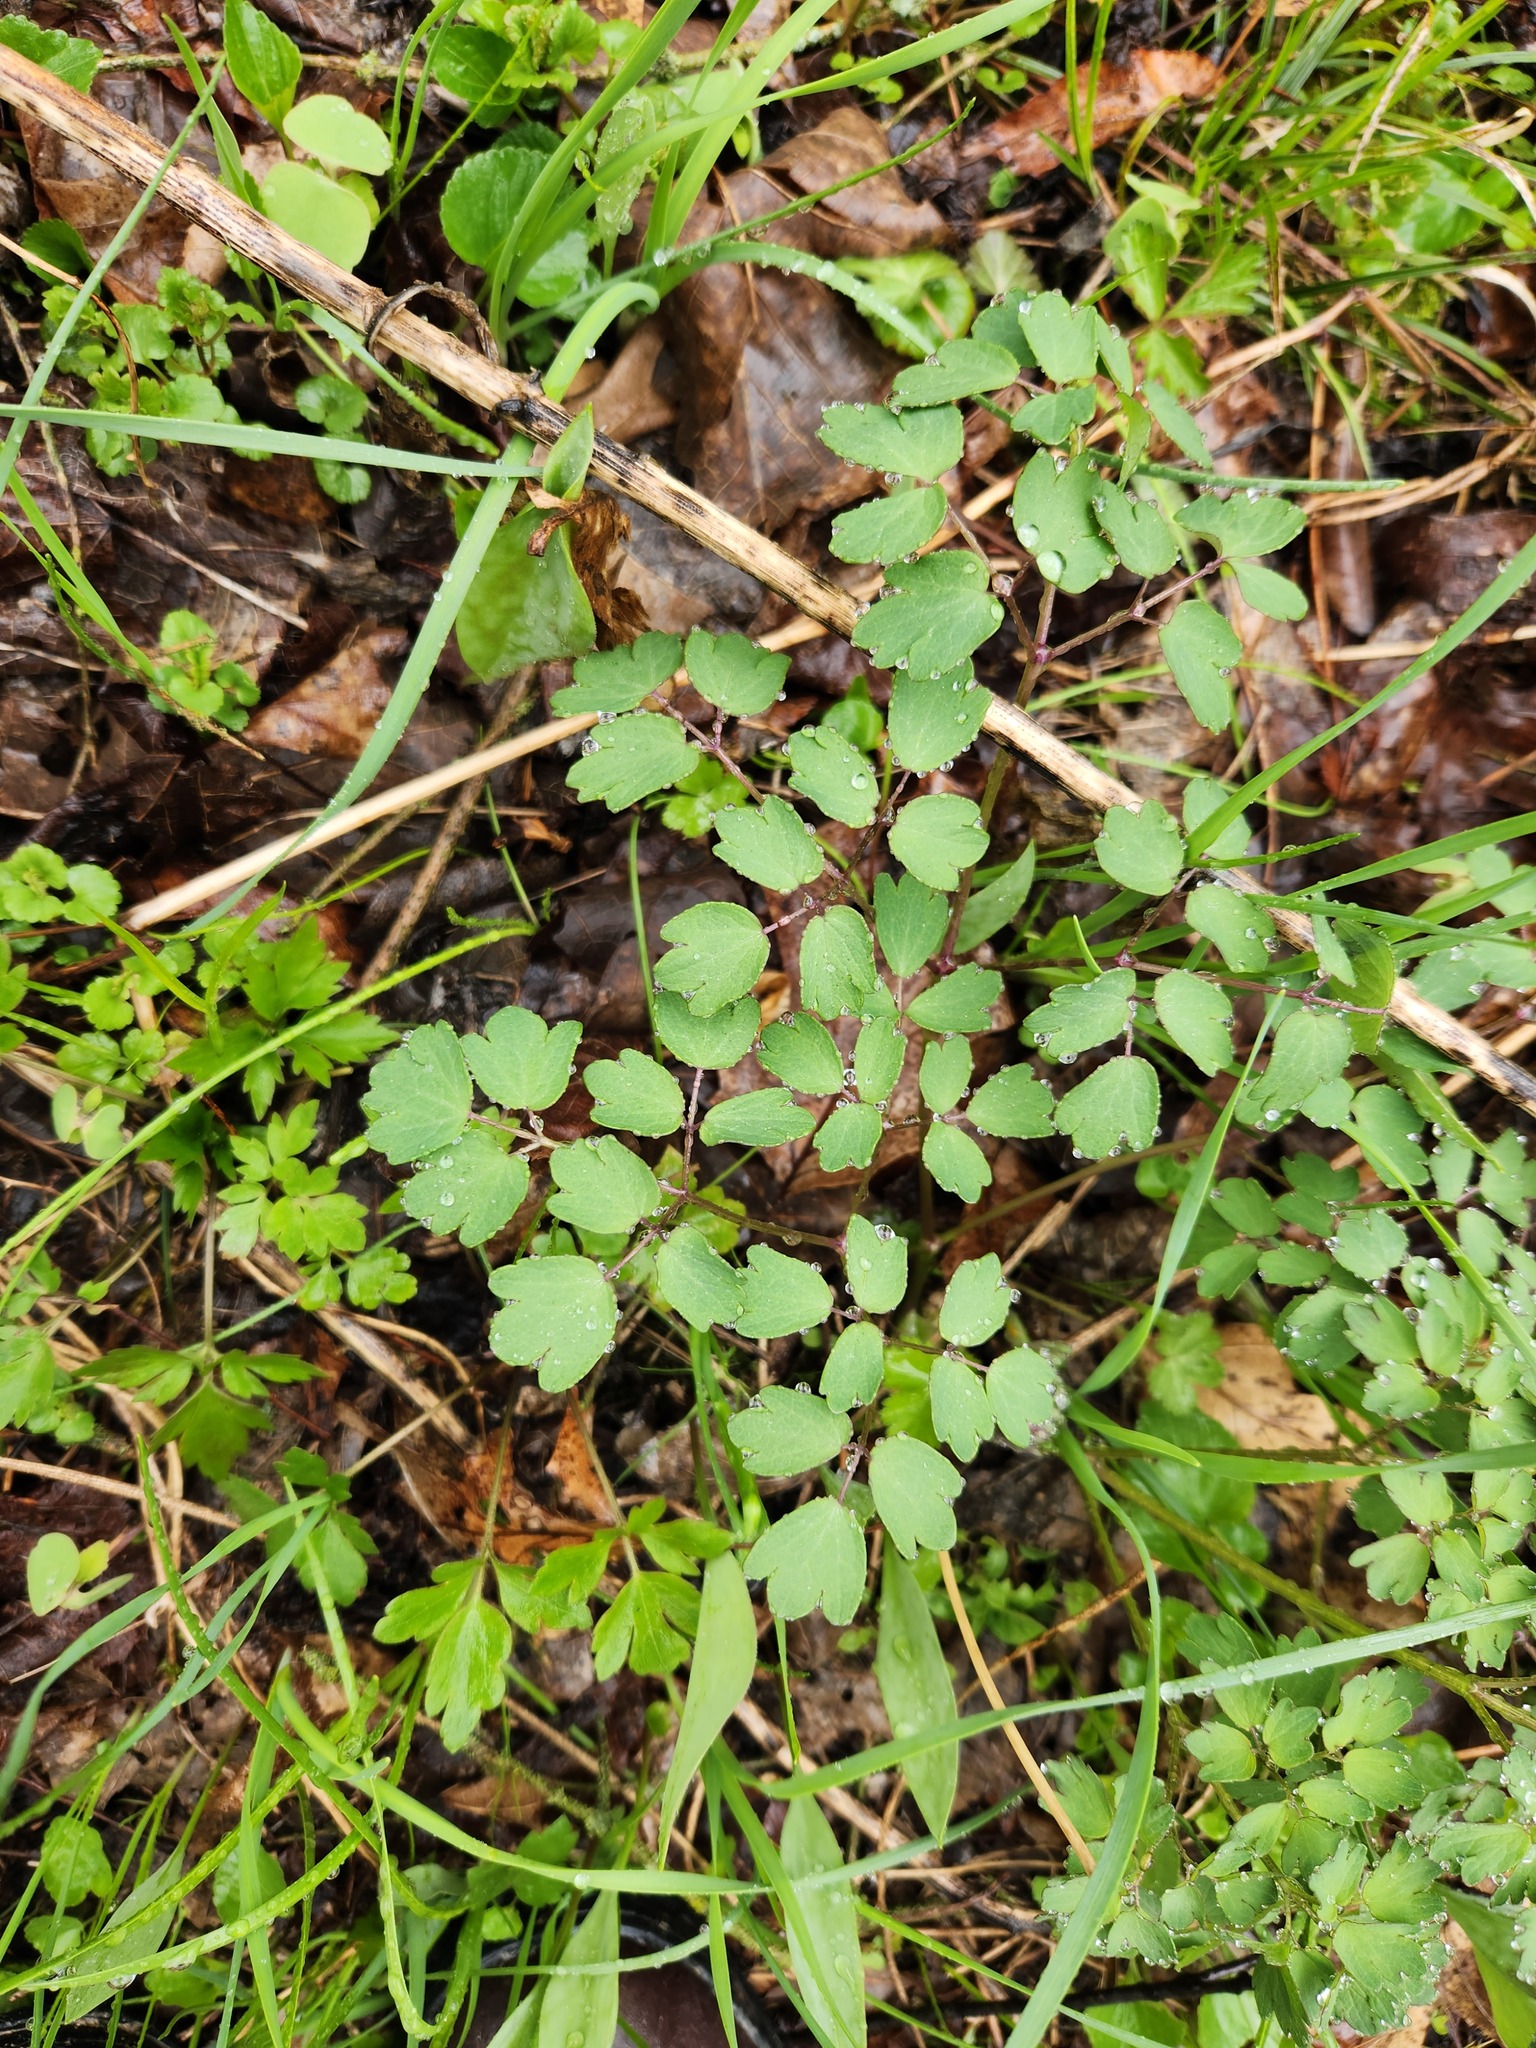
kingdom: Plantae
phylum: Tracheophyta
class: Magnoliopsida
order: Ranunculales
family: Ranunculaceae
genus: Thalictrum
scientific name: Thalictrum dioicum
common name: Early meadow-rue
